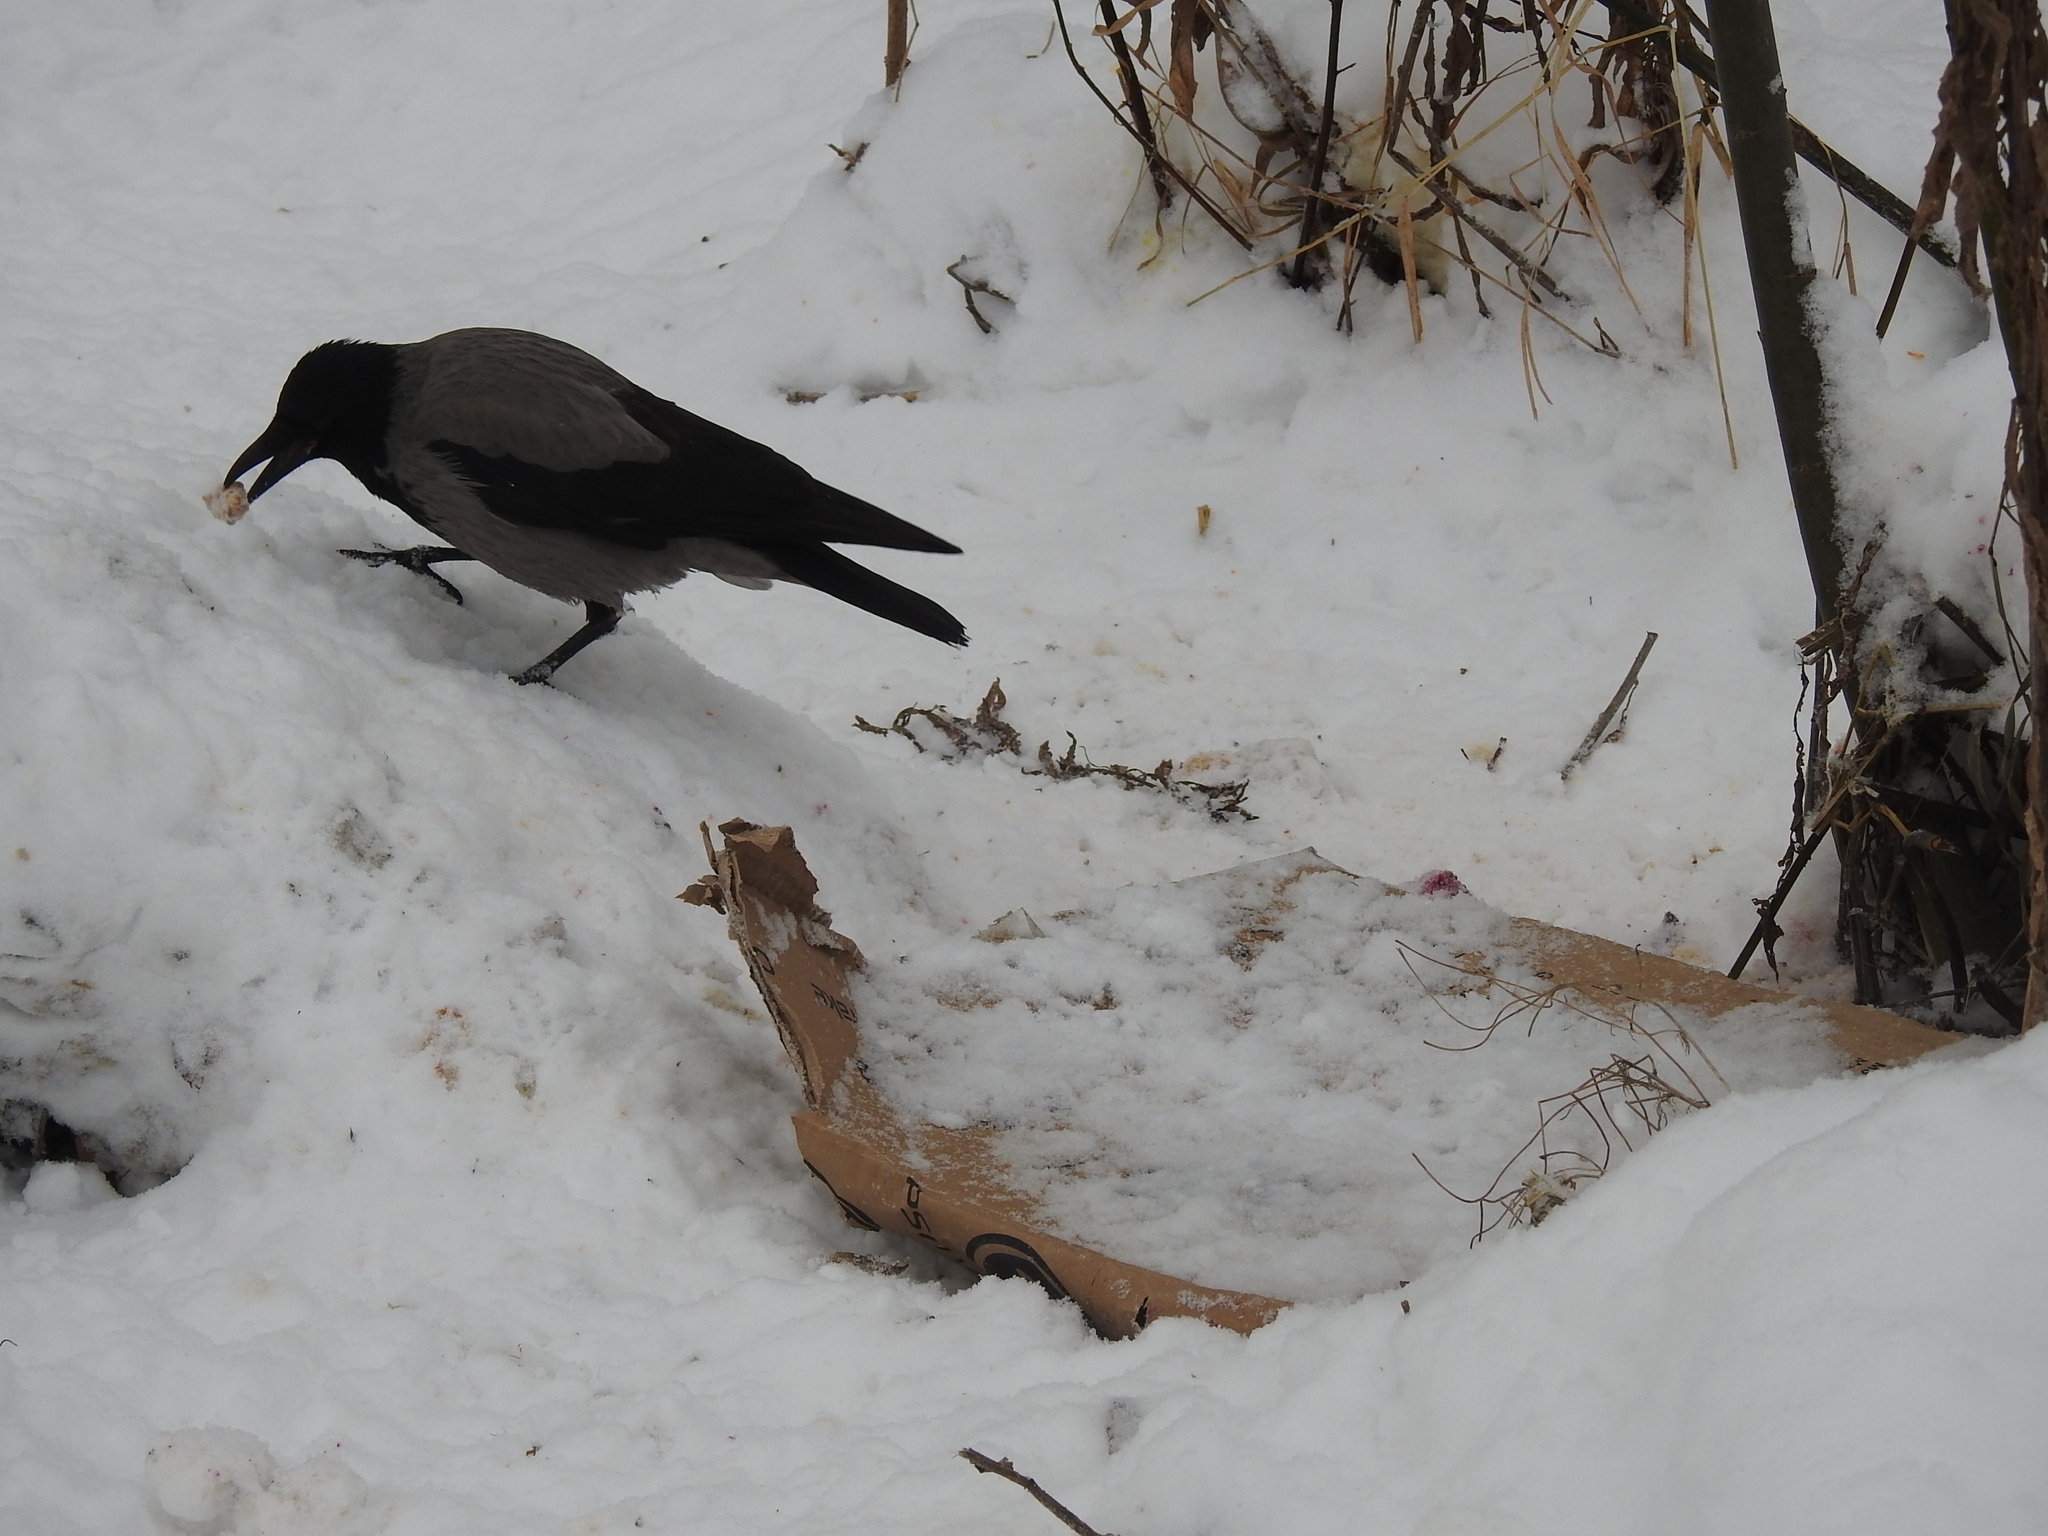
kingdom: Animalia
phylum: Chordata
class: Aves
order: Passeriformes
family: Corvidae
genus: Corvus
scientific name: Corvus cornix
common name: Hooded crow
